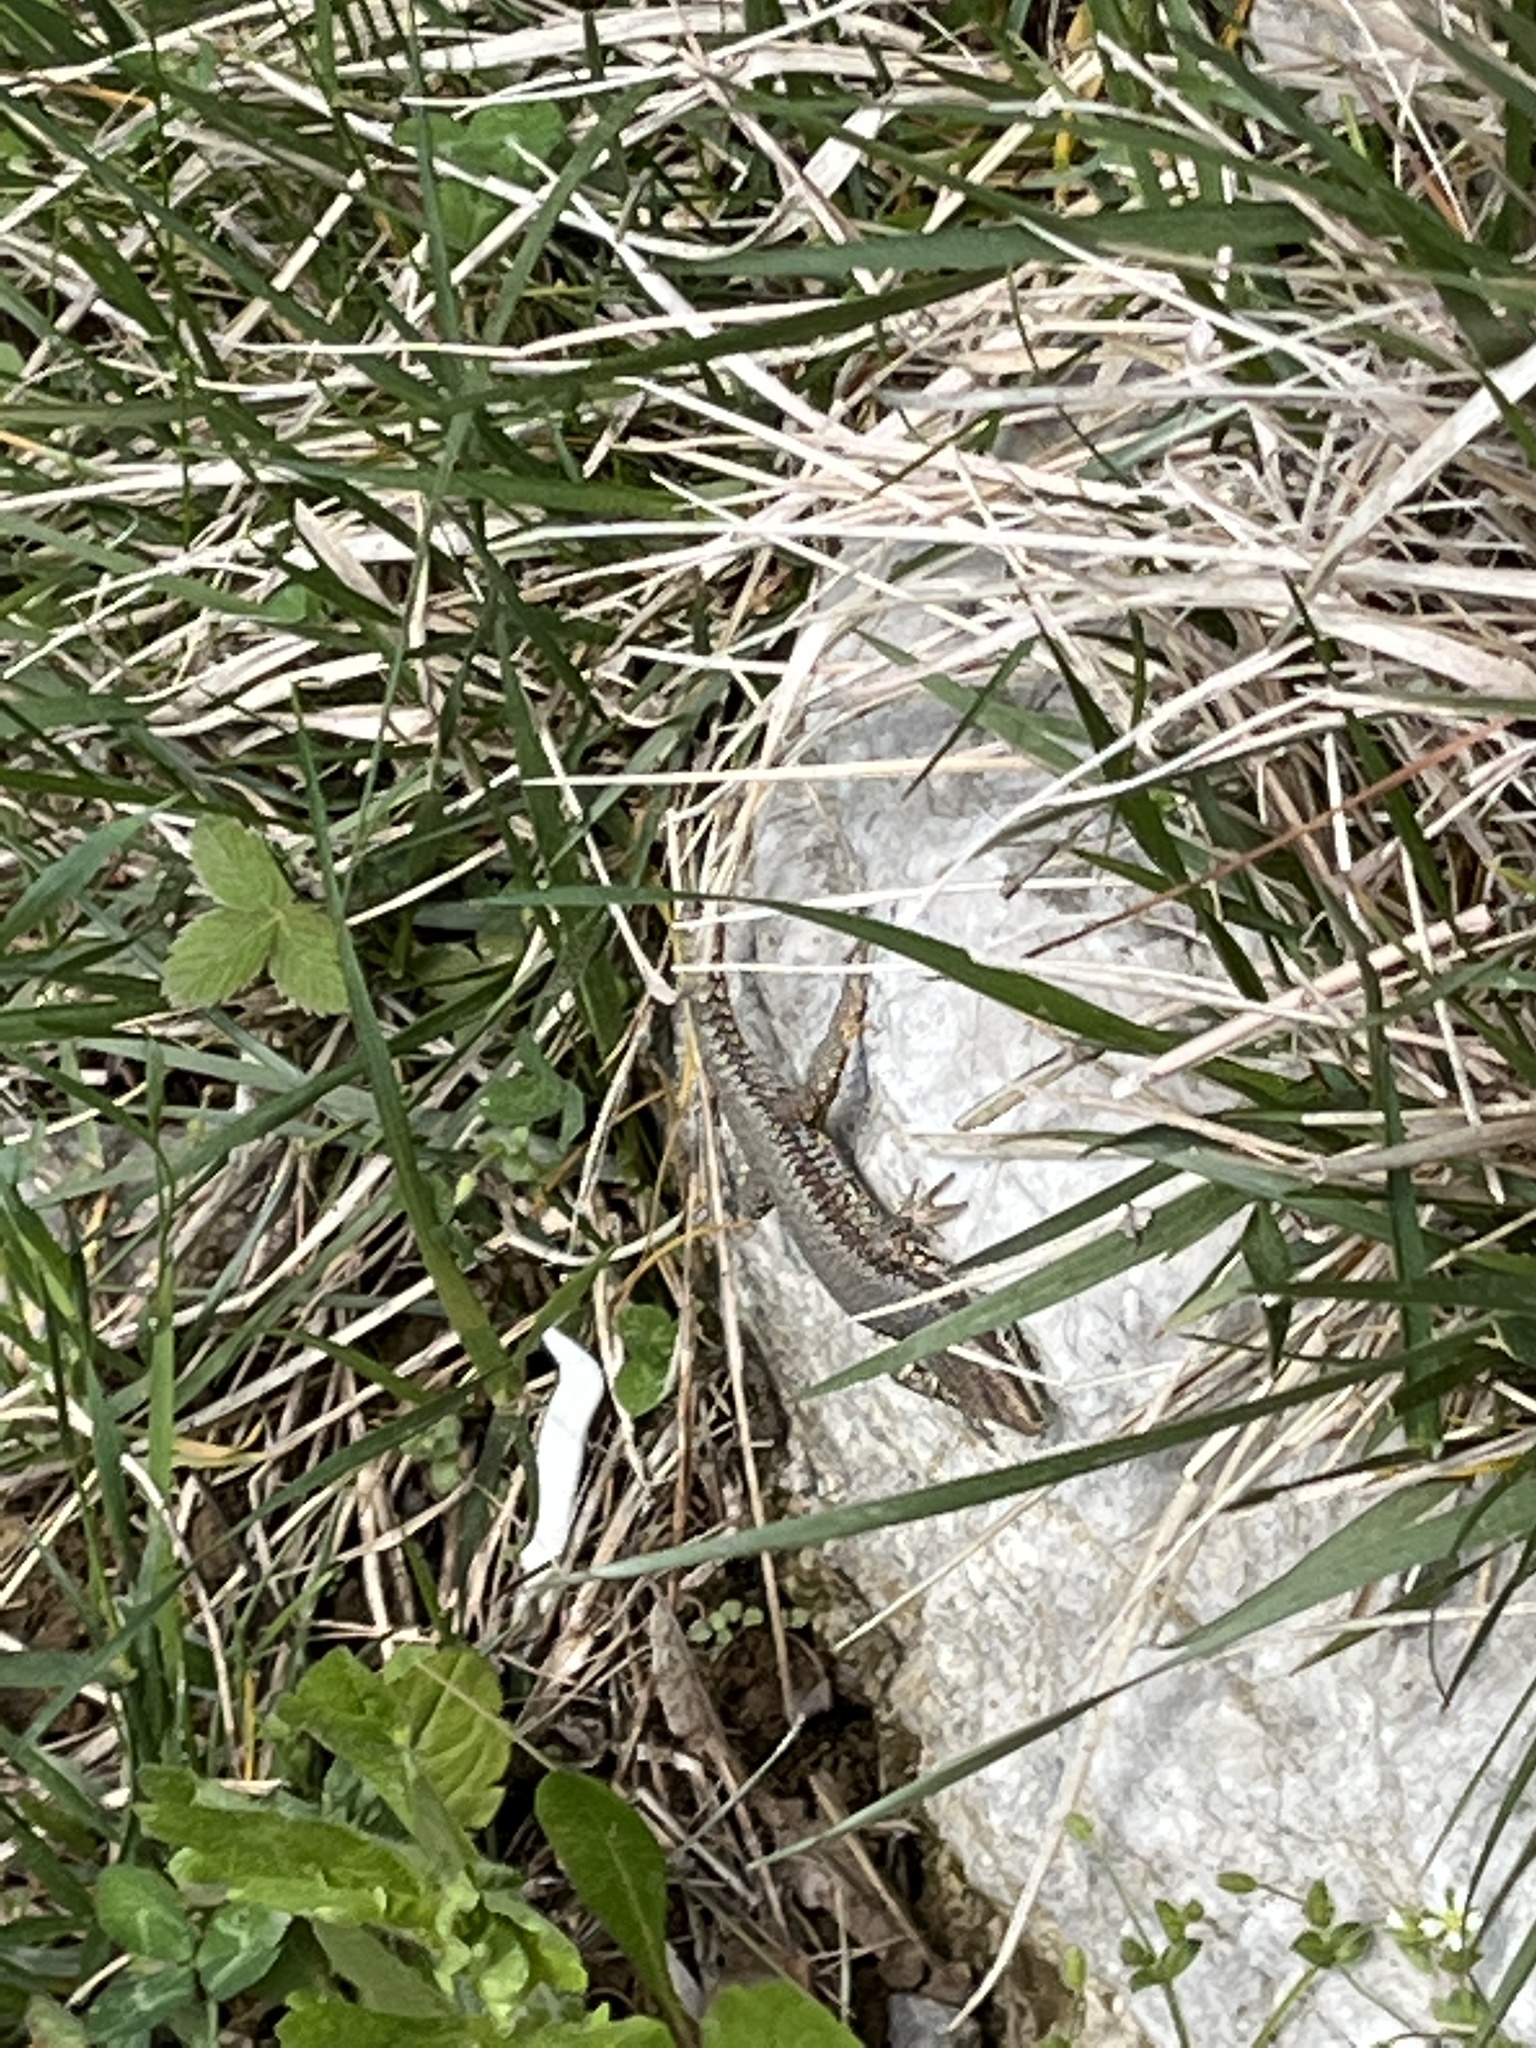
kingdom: Animalia
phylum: Chordata
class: Squamata
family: Lacertidae
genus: Podarcis
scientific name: Podarcis muralis
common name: Common wall lizard
